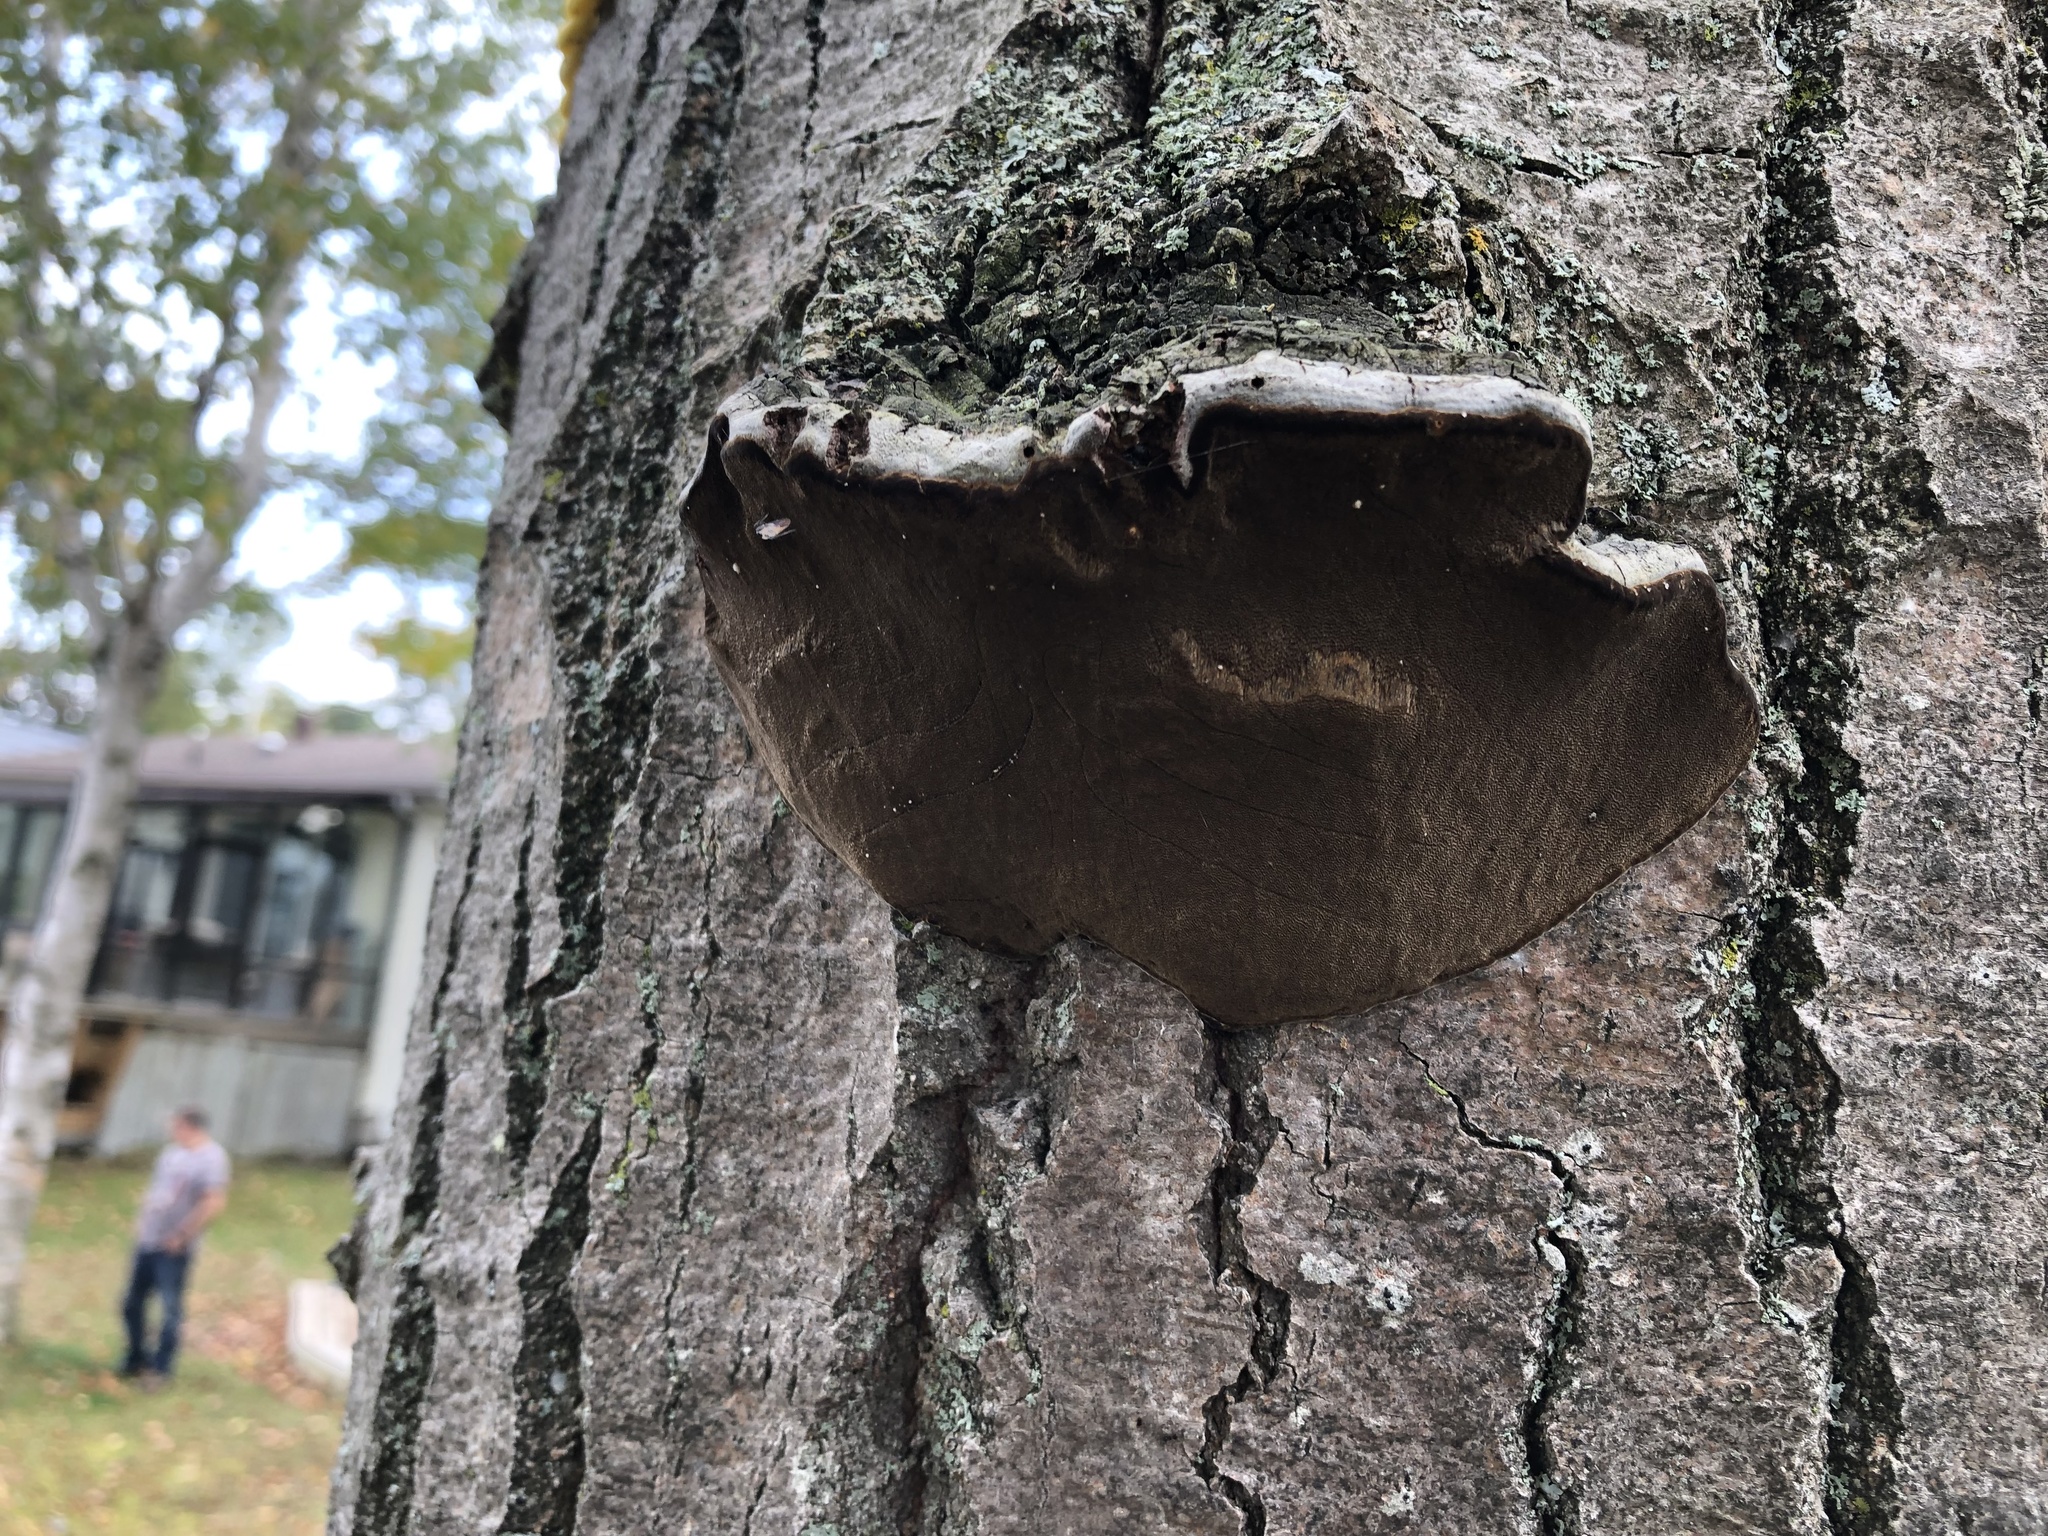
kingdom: Fungi
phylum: Basidiomycota
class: Agaricomycetes
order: Hymenochaetales
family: Hymenochaetaceae
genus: Phellinus
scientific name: Phellinus tremulae
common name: Aspen bracket
